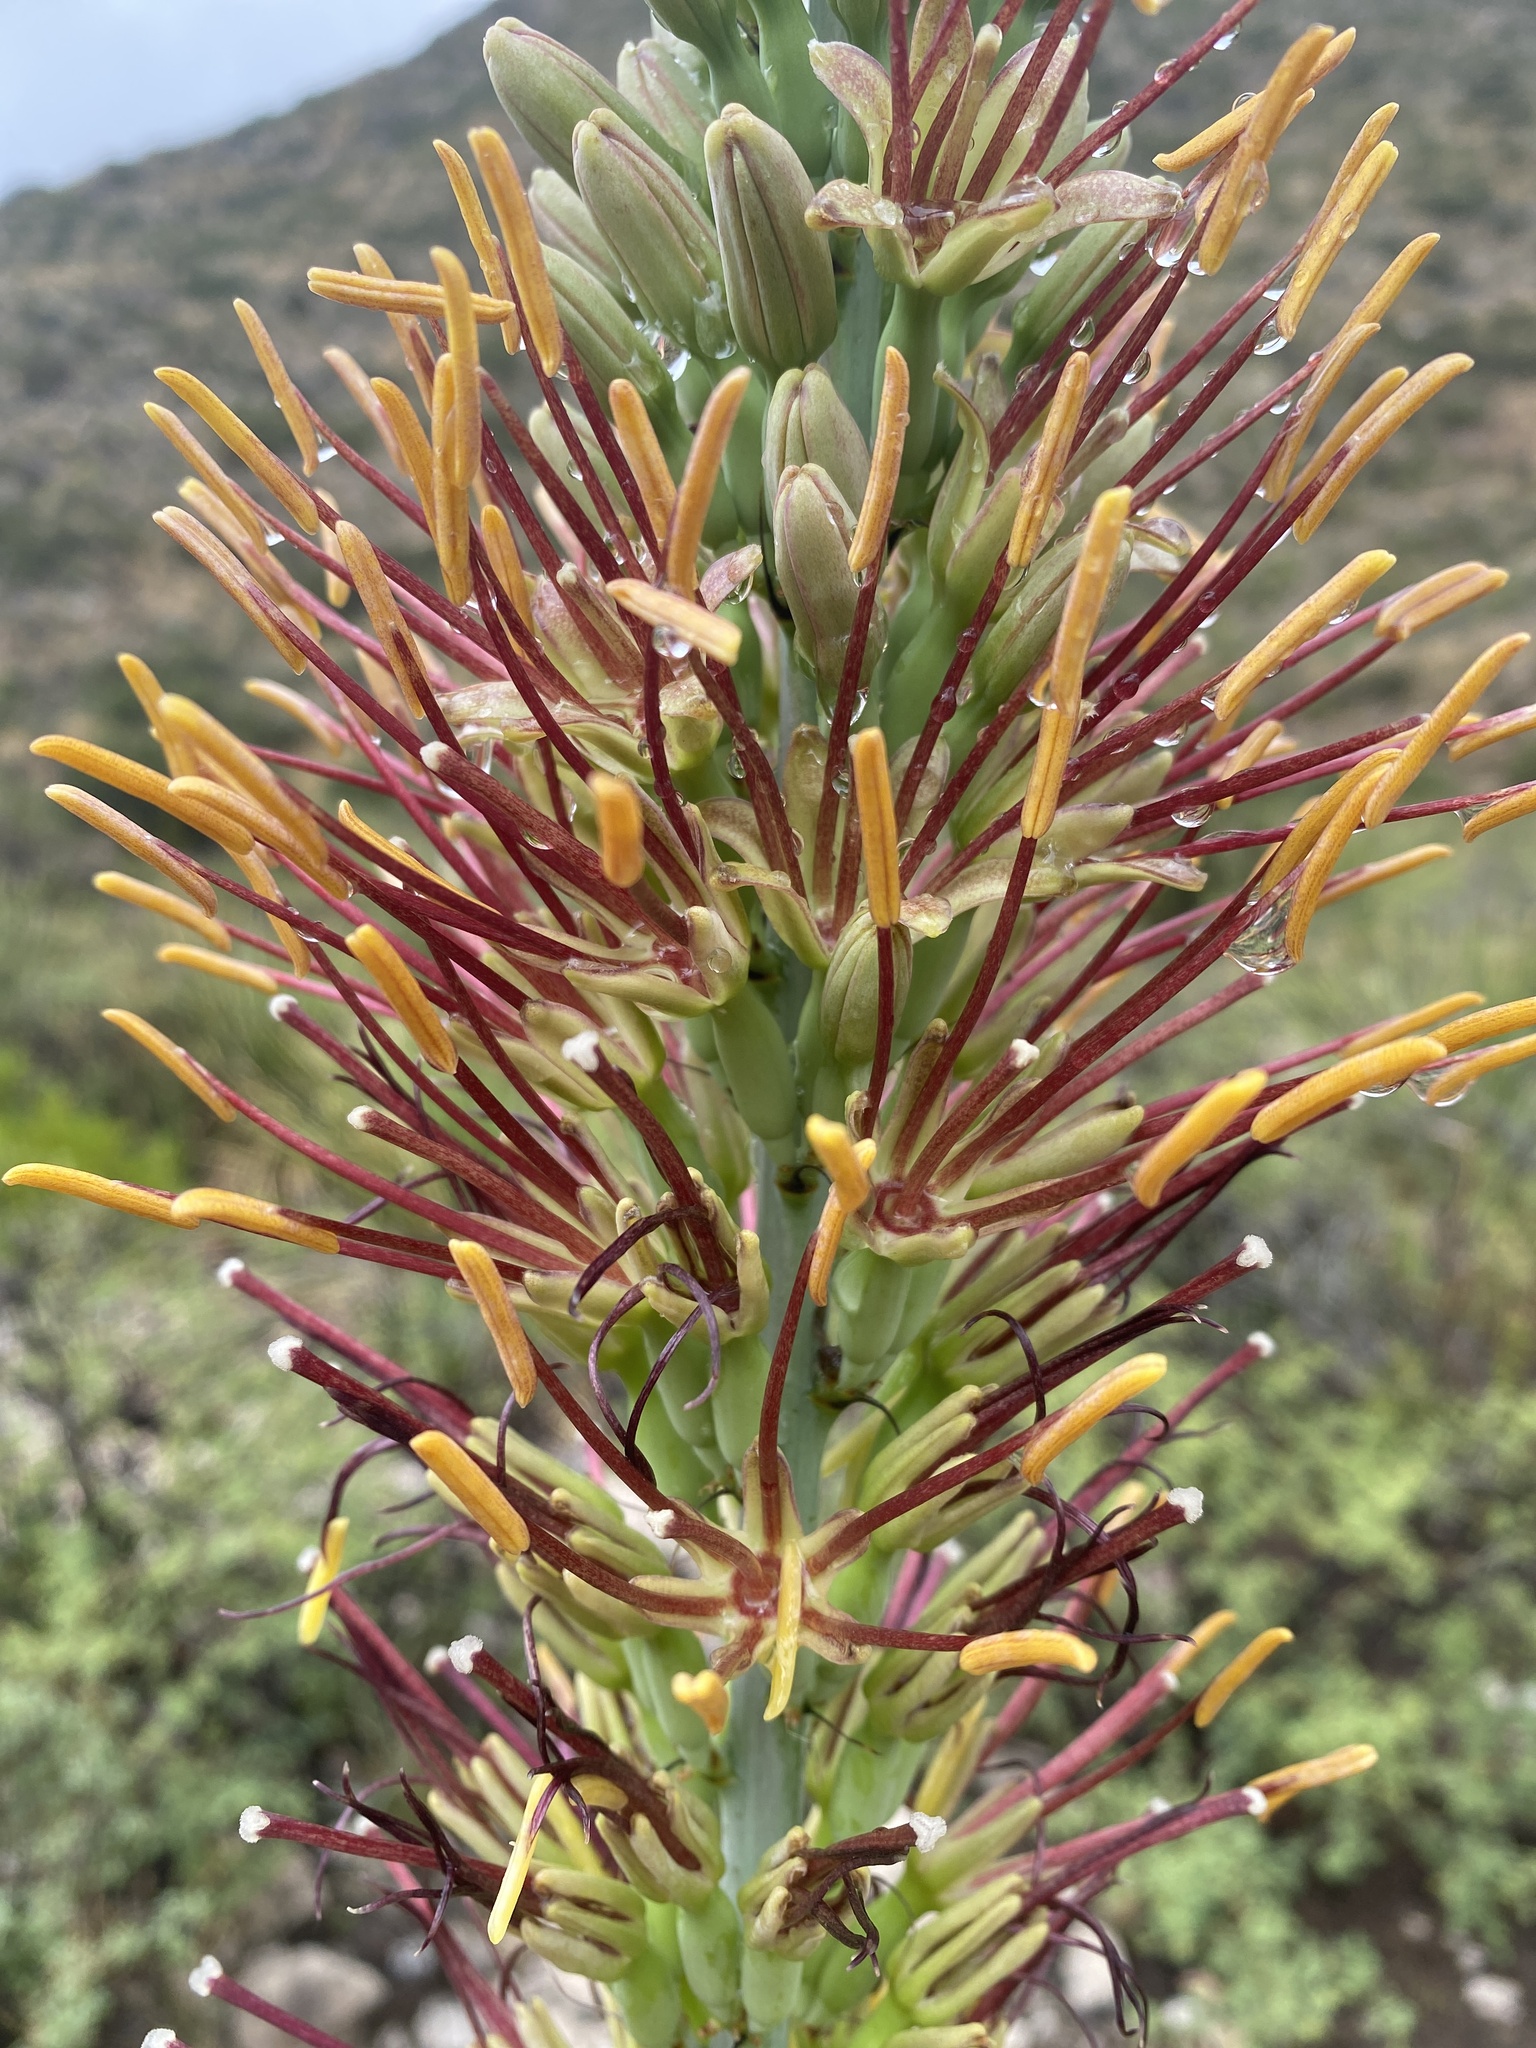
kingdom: Plantae
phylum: Tracheophyta
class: Liliopsida
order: Asparagales
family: Asparagaceae
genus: Agave
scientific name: Agave lechuguilla
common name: Lecheguilla agave
